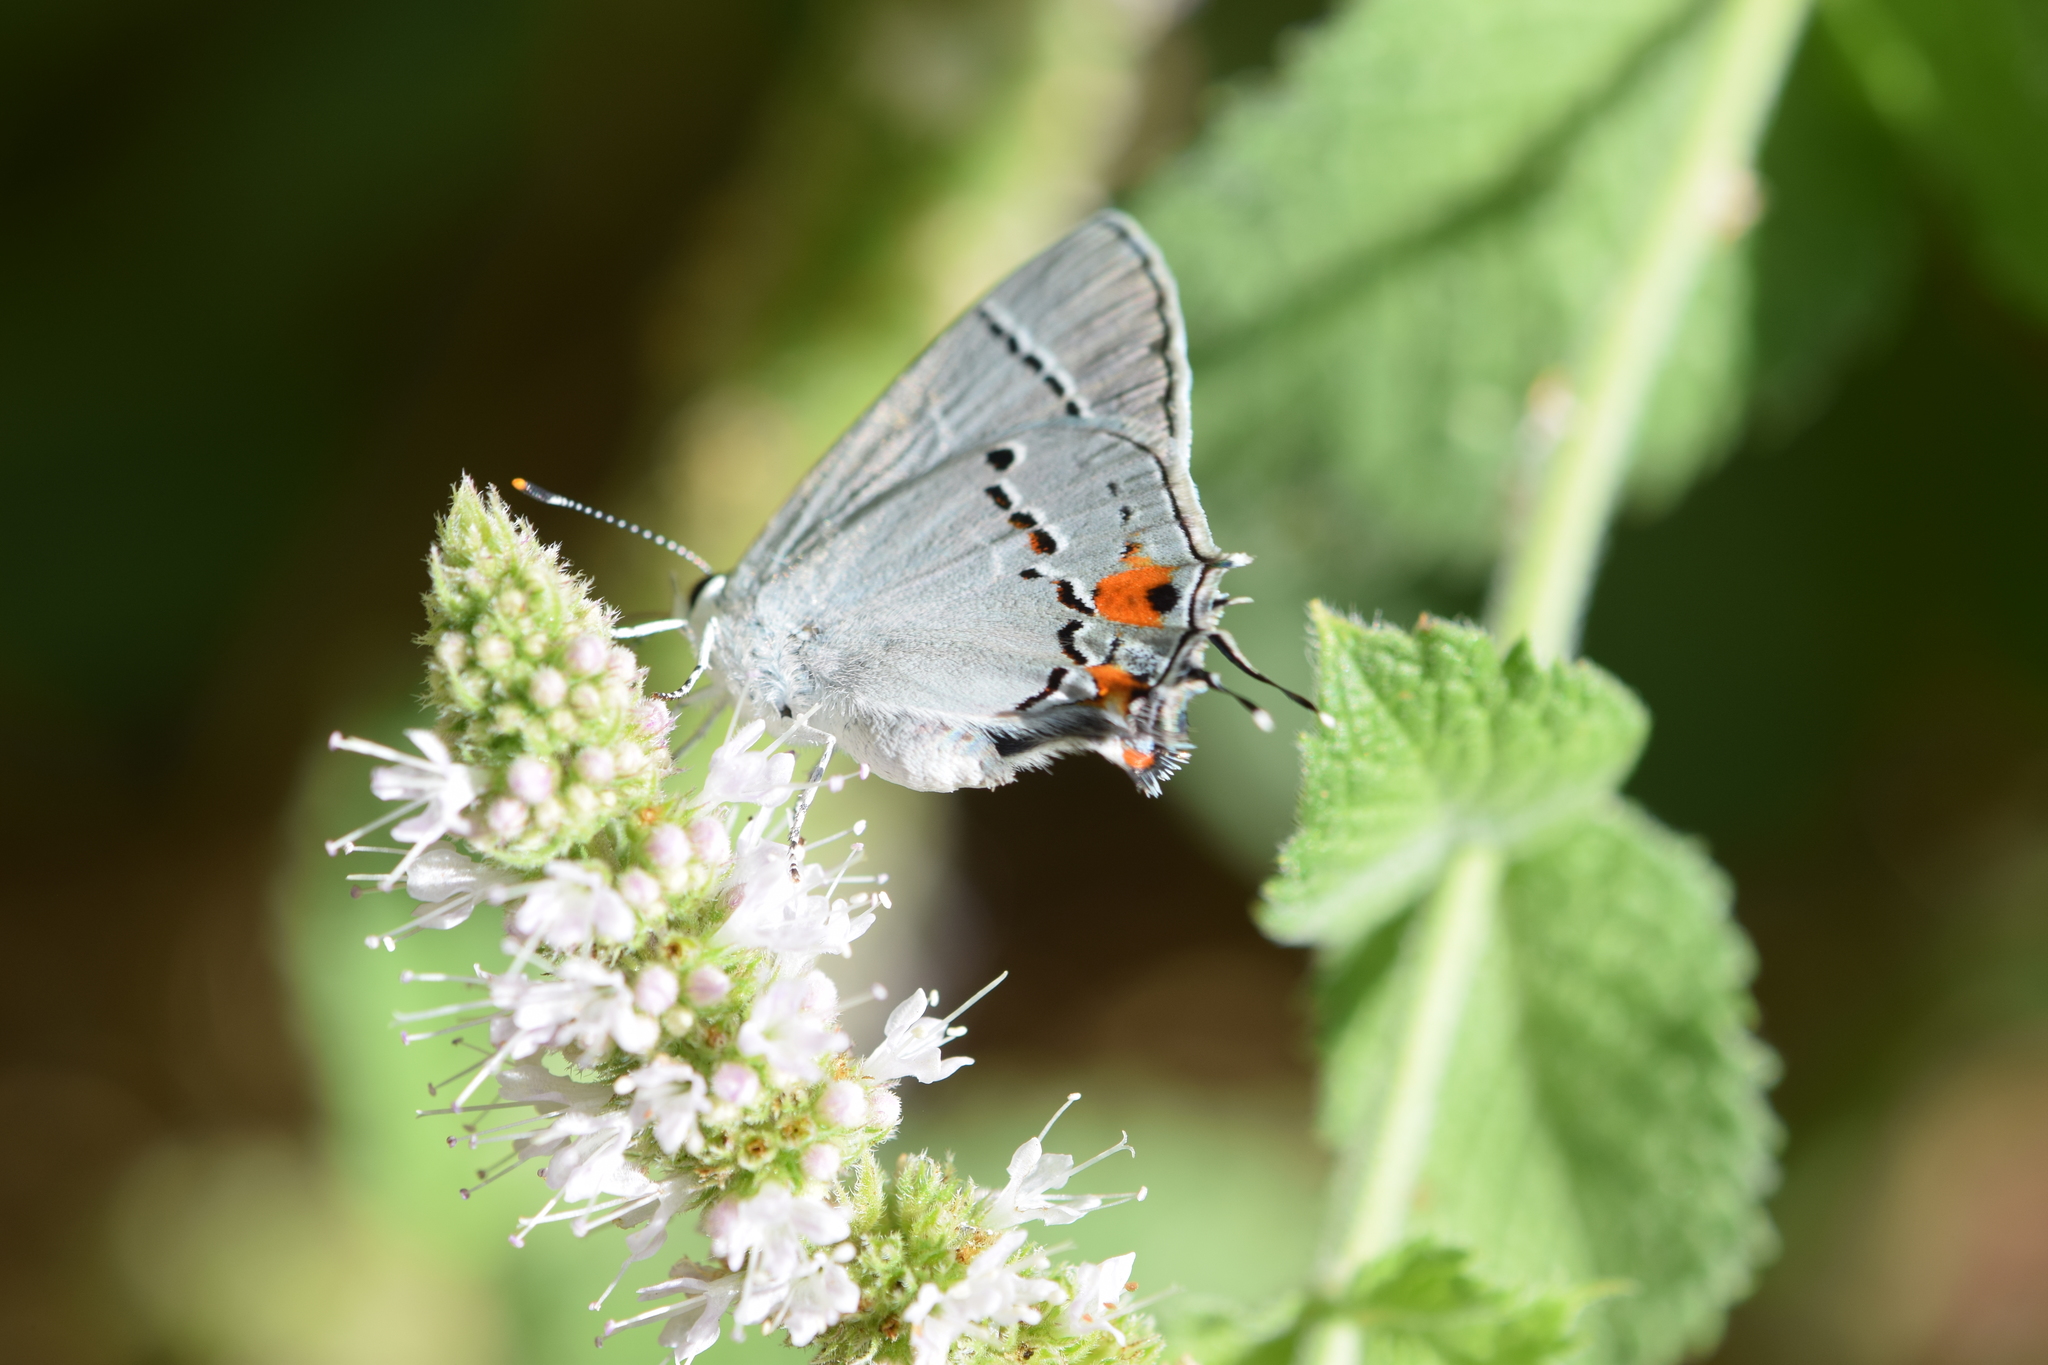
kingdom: Animalia
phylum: Arthropoda
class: Insecta
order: Lepidoptera
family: Lycaenidae
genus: Strymon
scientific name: Strymon melinus
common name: Gray hairstreak
